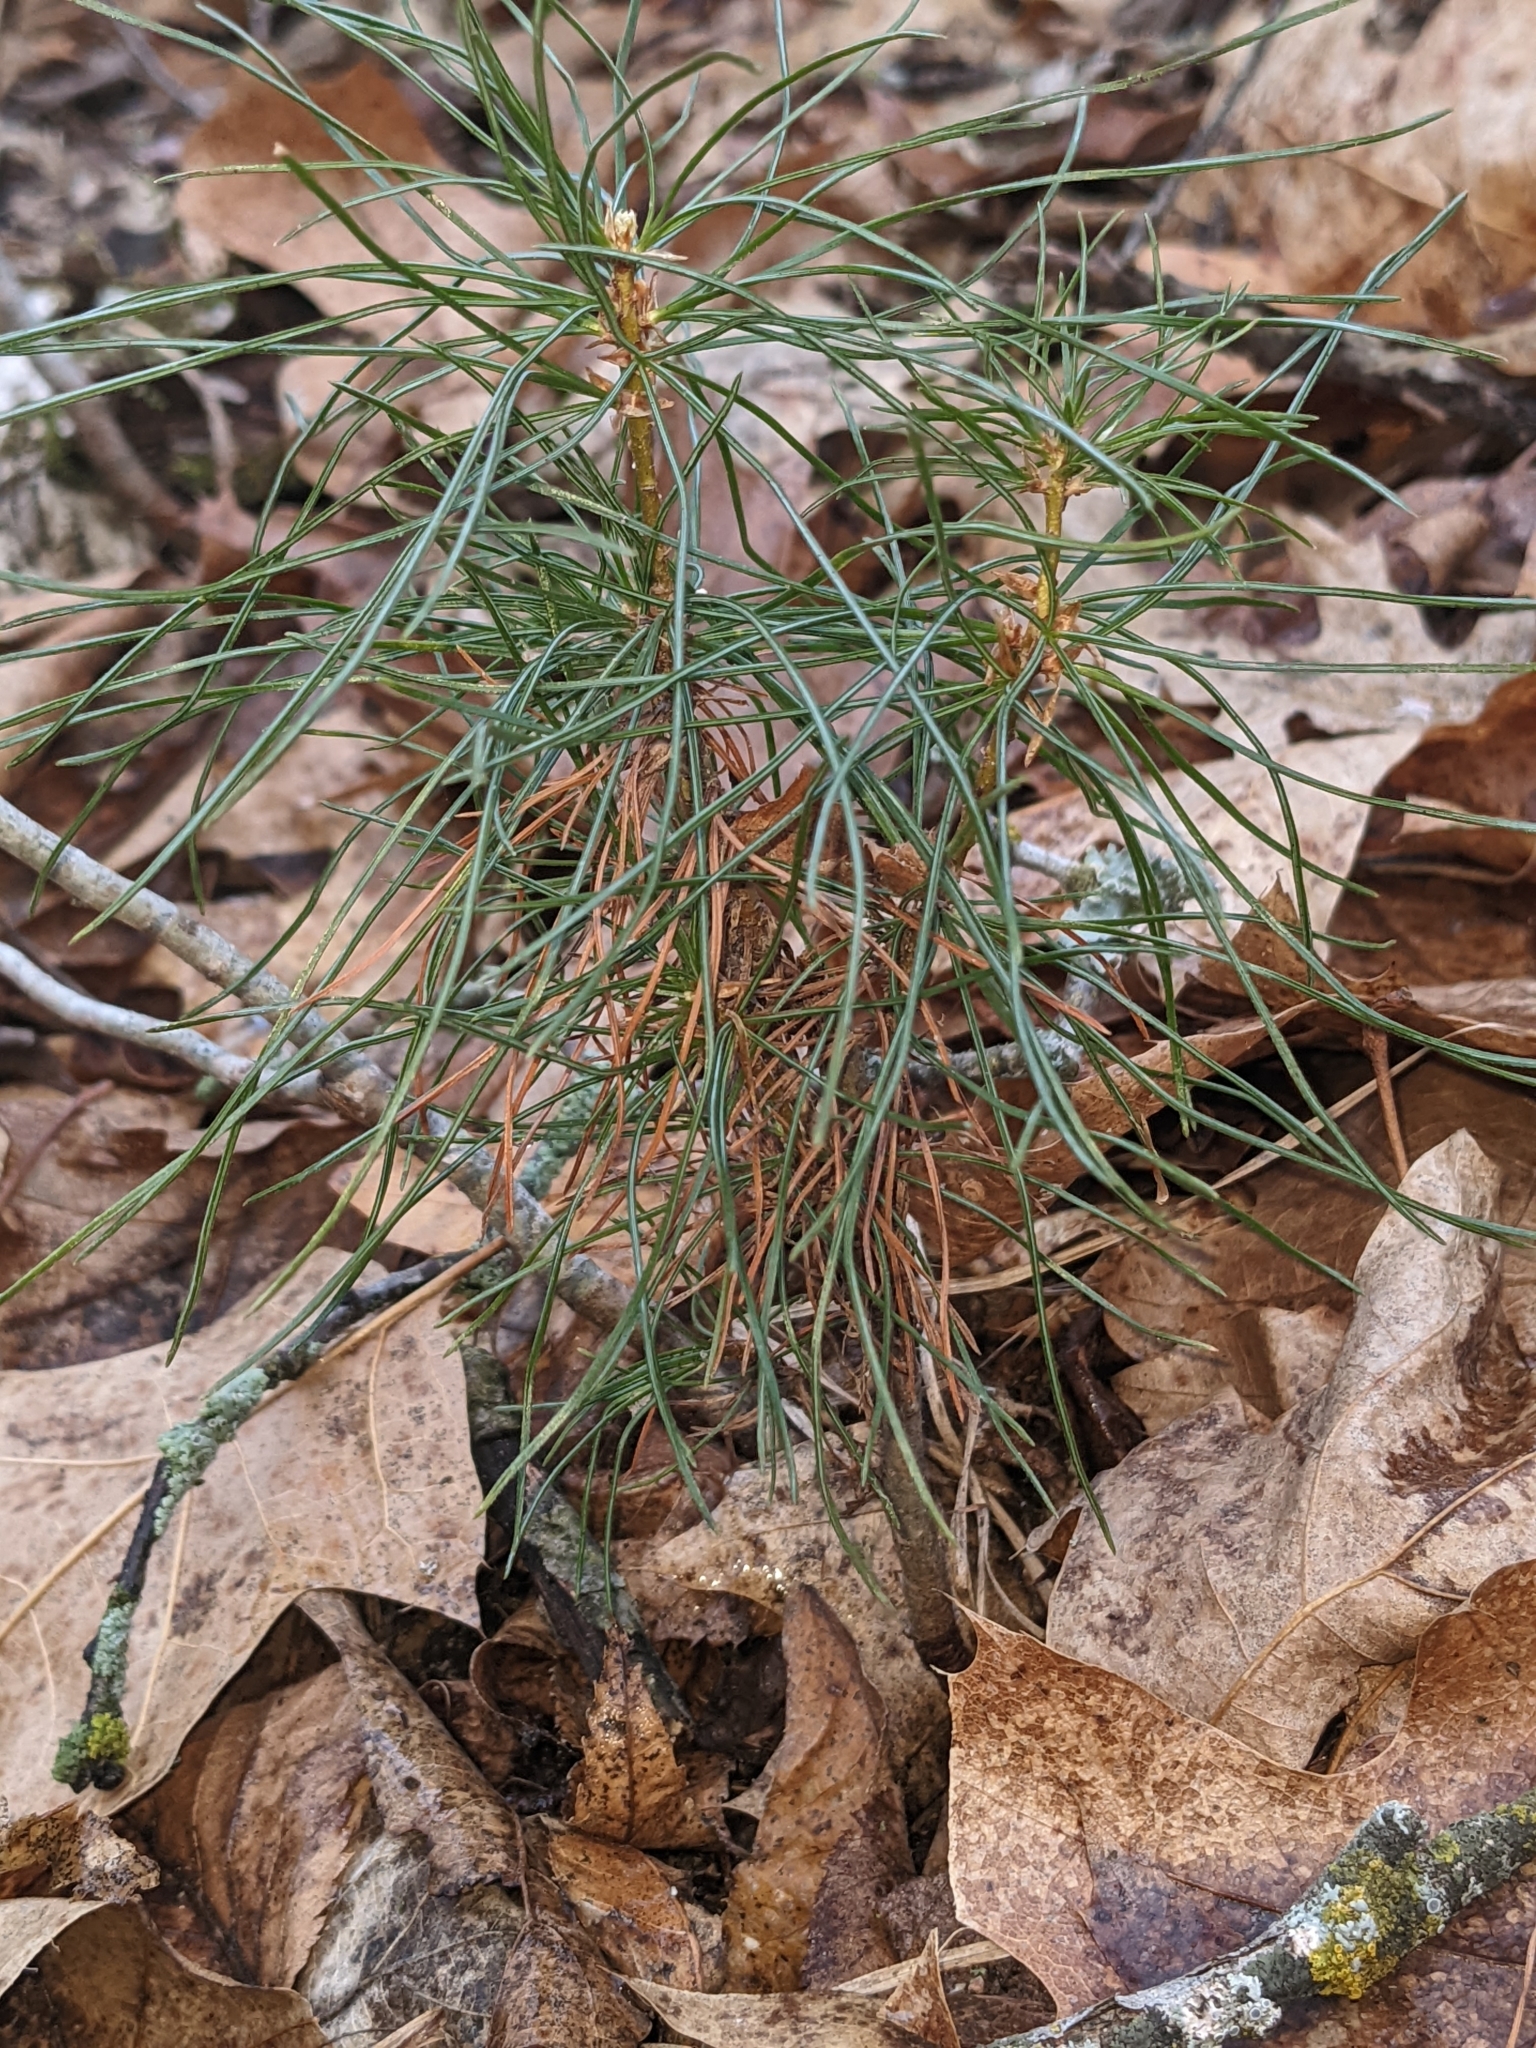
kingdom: Plantae
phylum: Tracheophyta
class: Pinopsida
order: Pinales
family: Pinaceae
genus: Pinus
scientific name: Pinus strobus
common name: Weymouth pine
